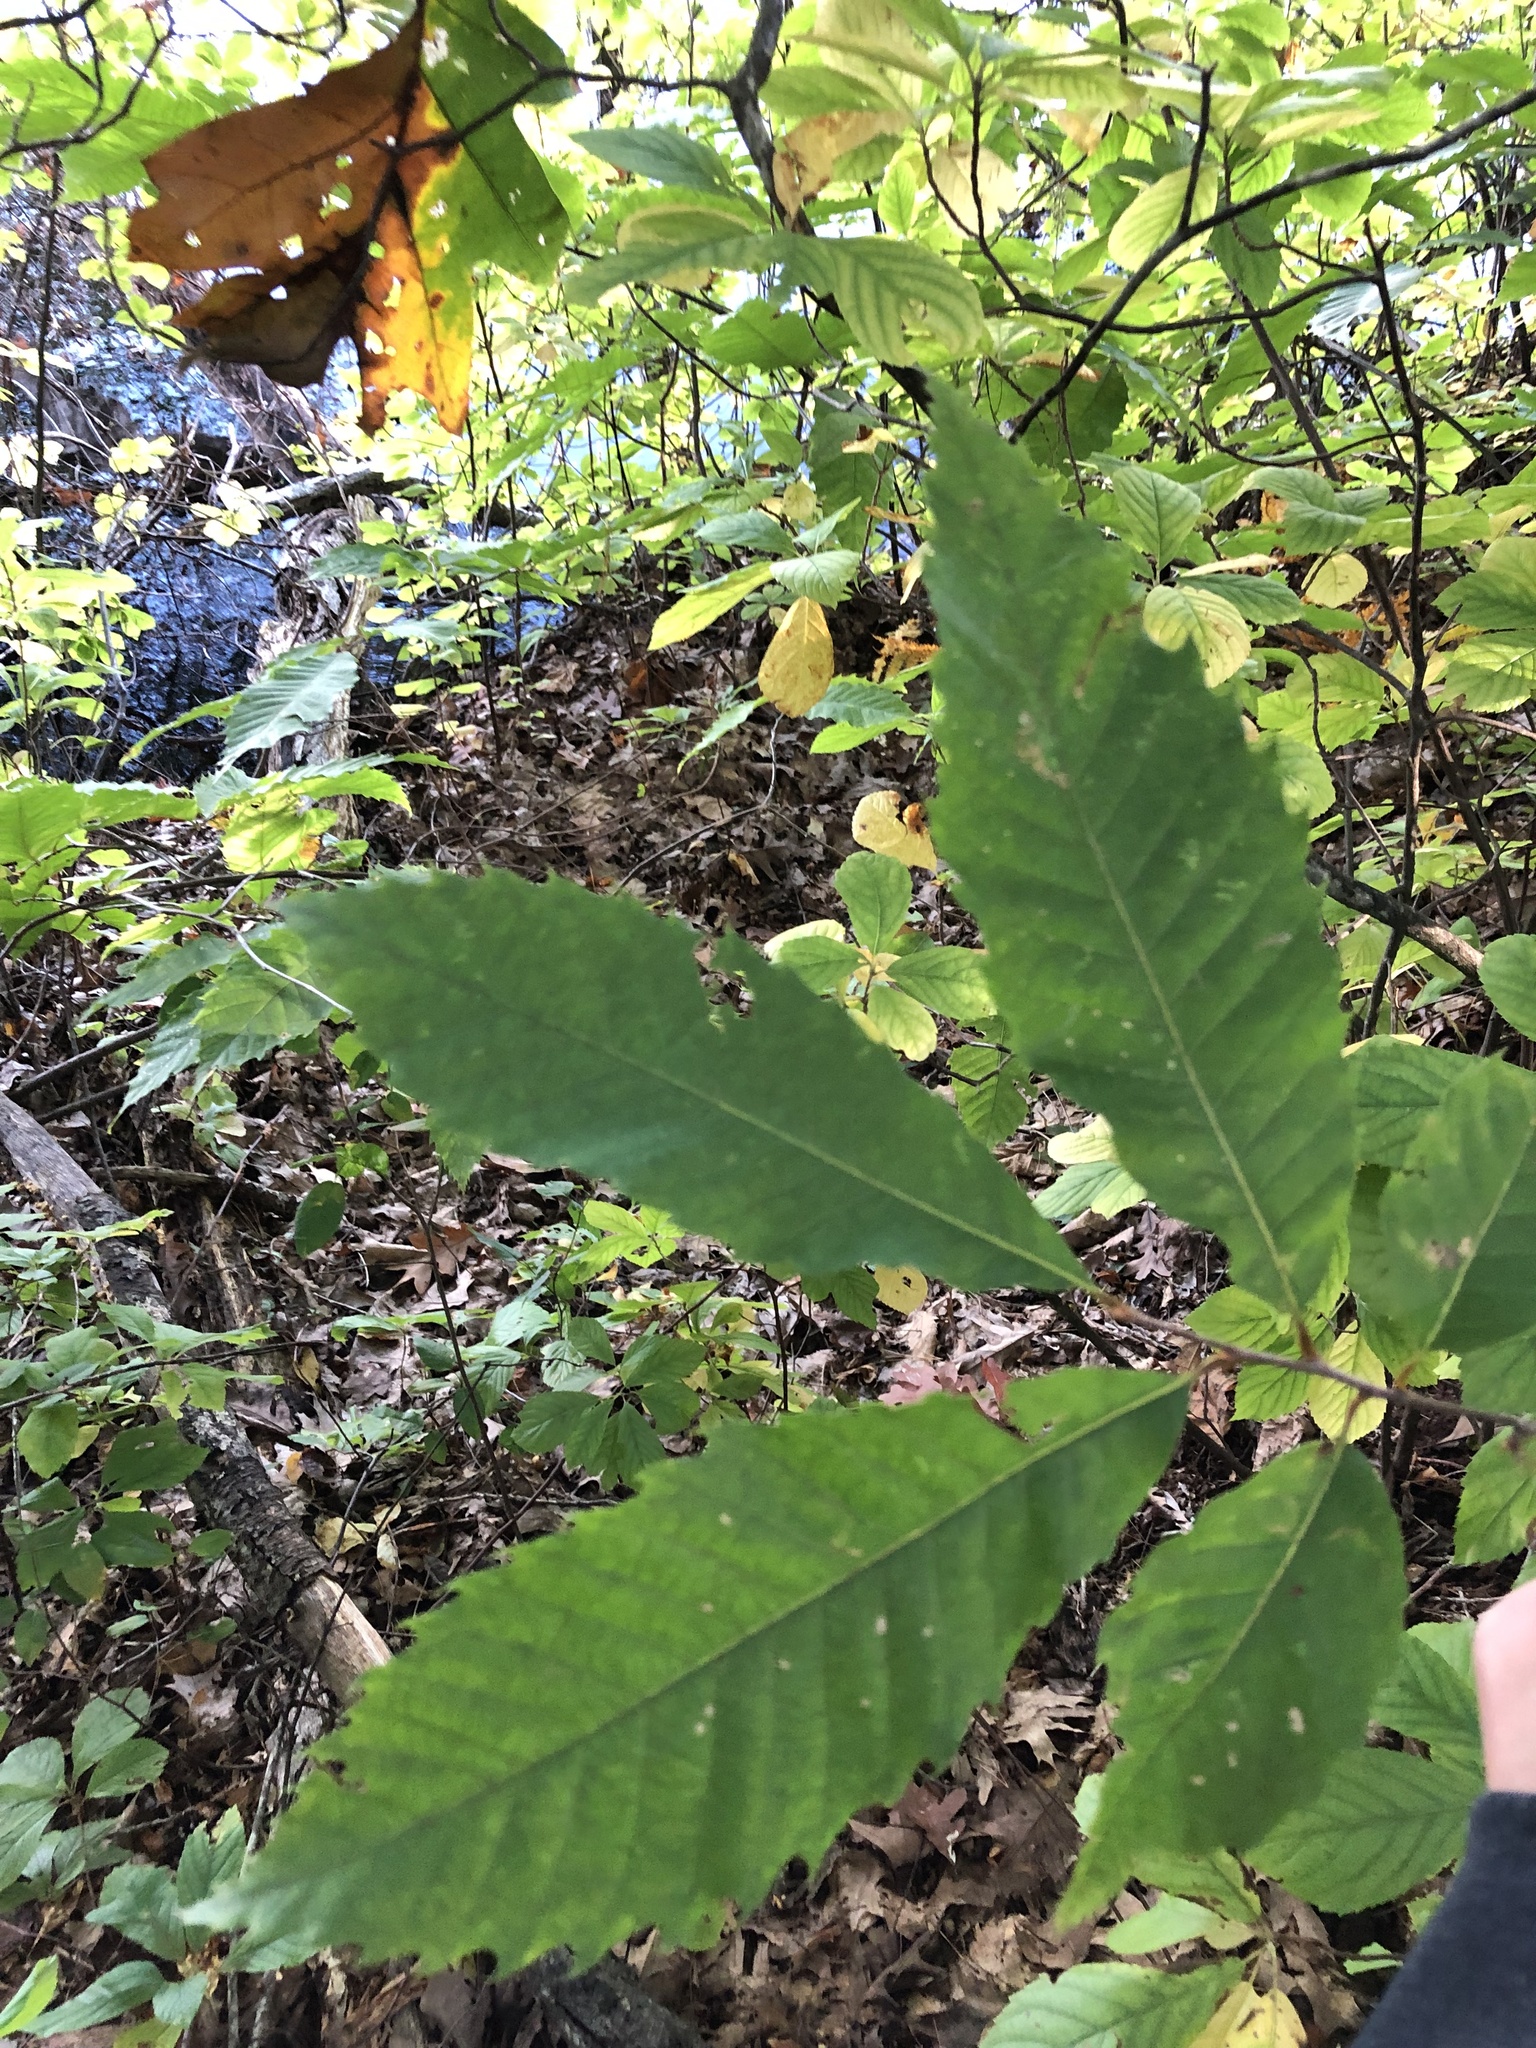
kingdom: Plantae
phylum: Tracheophyta
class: Magnoliopsida
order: Fagales
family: Fagaceae
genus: Castanea
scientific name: Castanea dentata
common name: American chestnut
